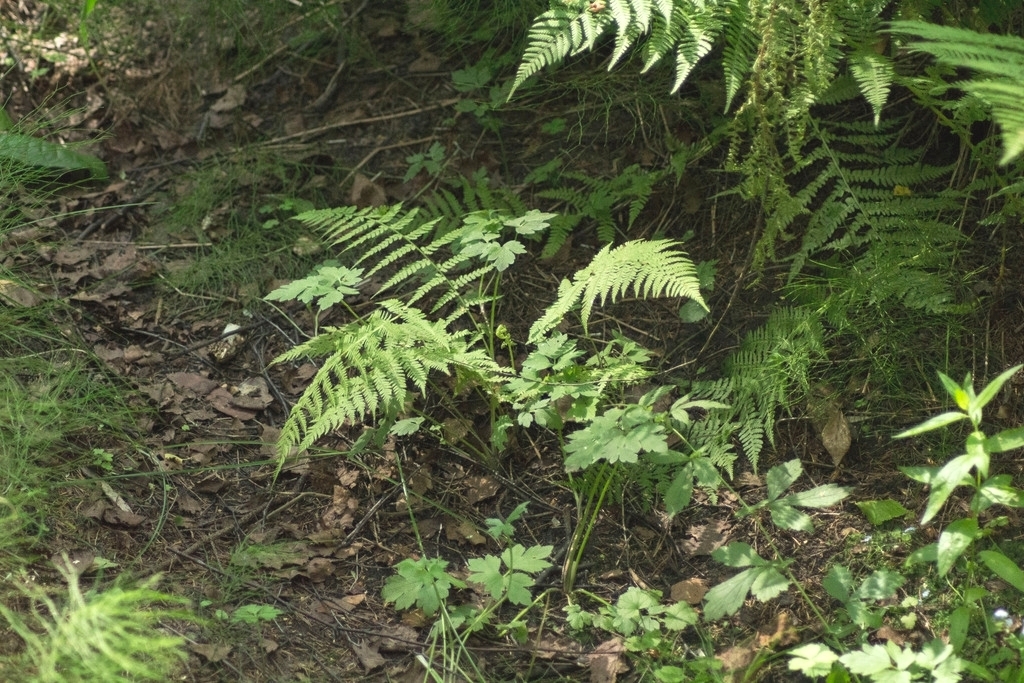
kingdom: Plantae
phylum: Tracheophyta
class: Polypodiopsida
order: Polypodiales
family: Athyriaceae
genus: Athyrium
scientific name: Athyrium filix-femina
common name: Lady fern
